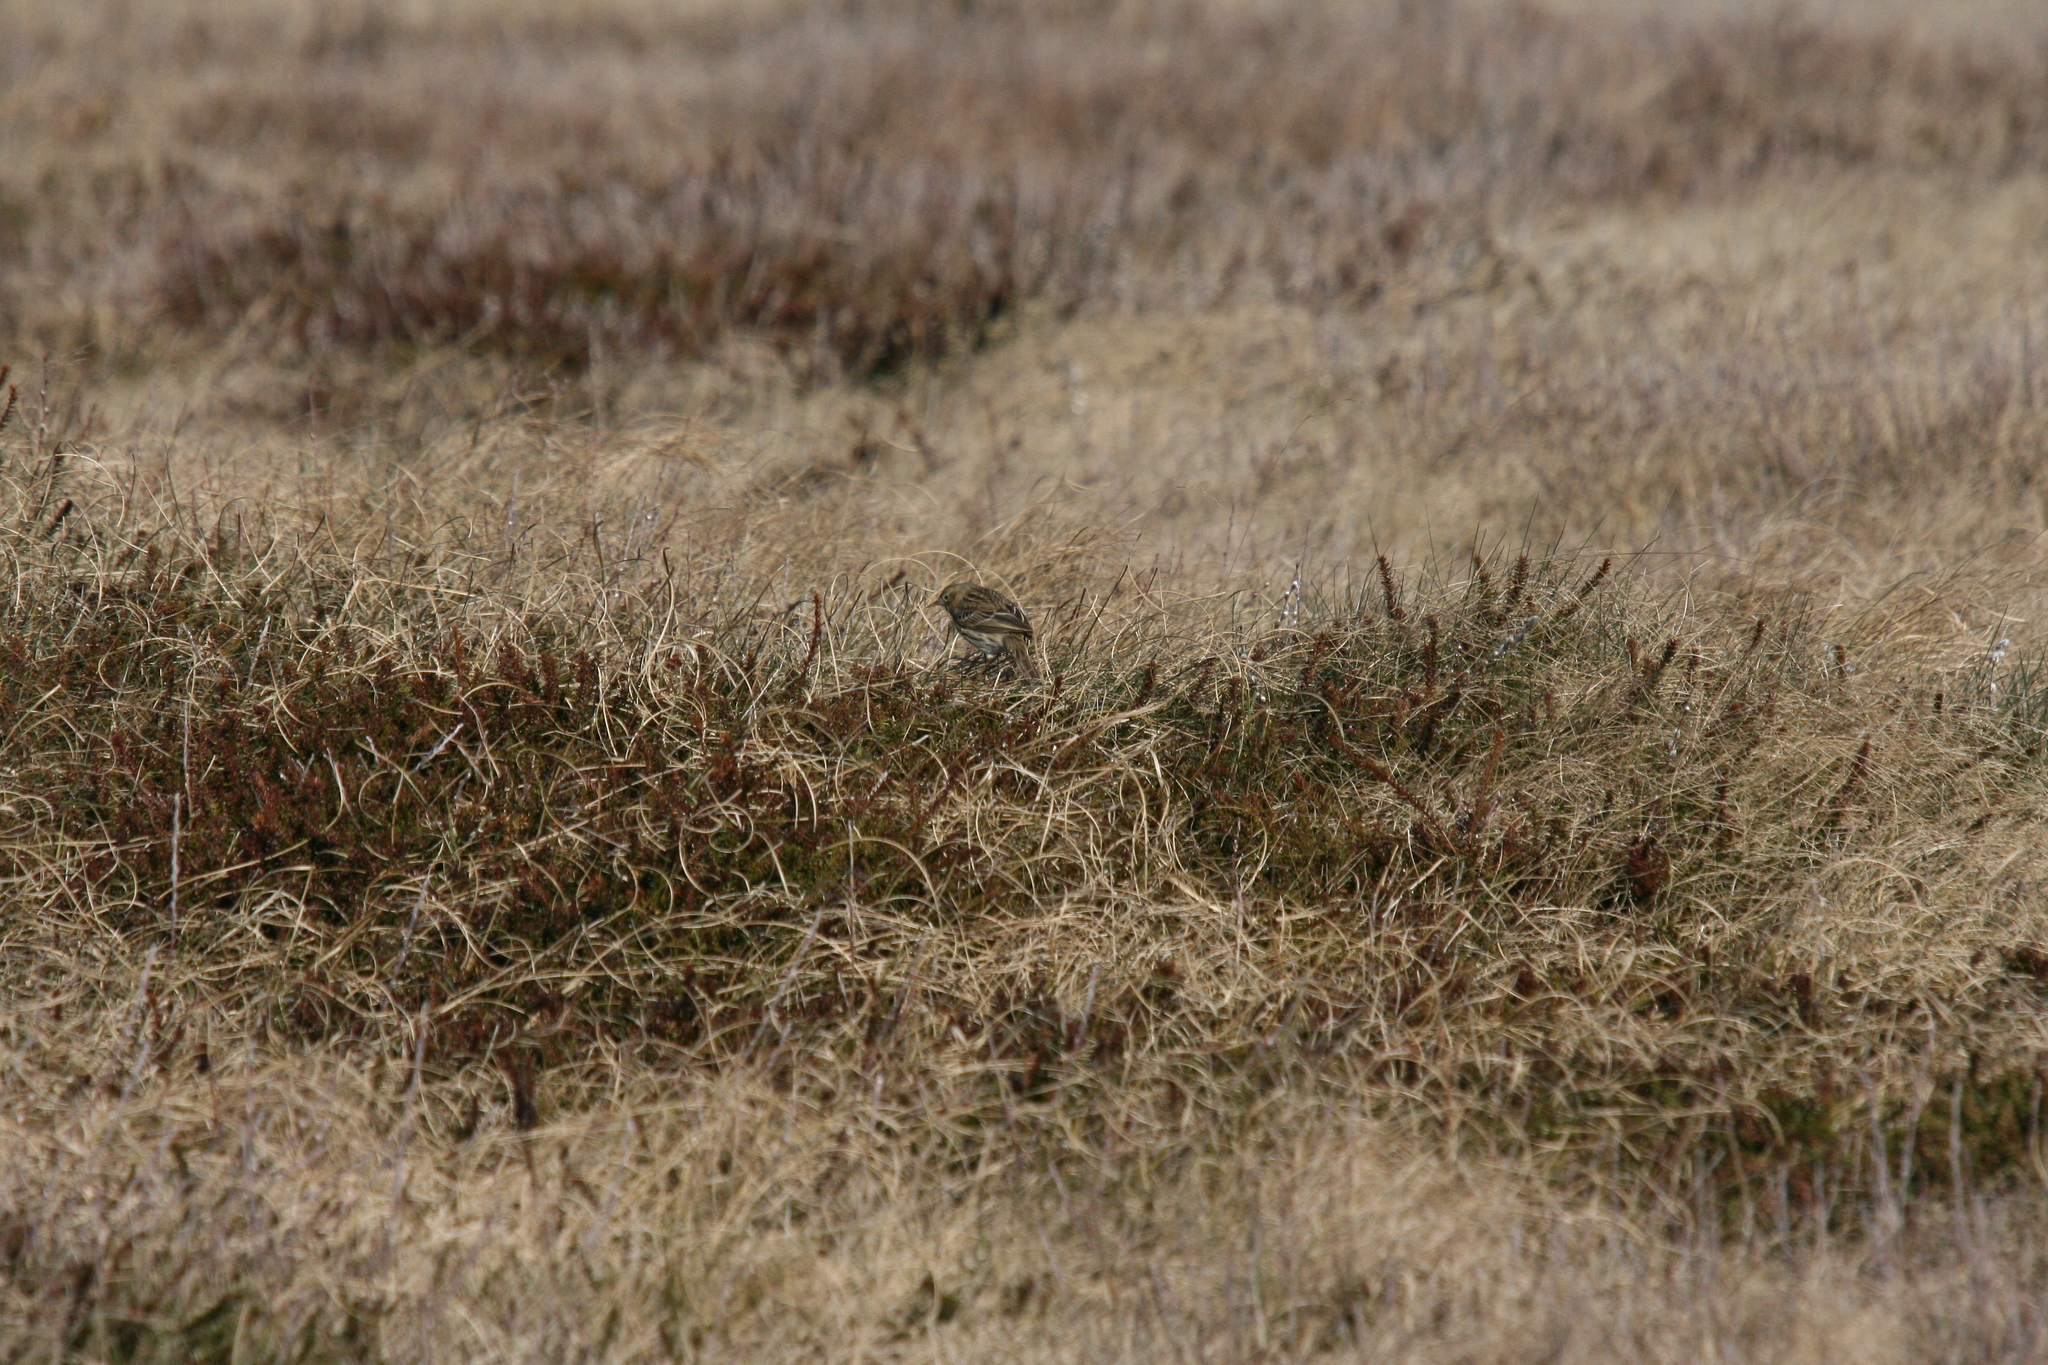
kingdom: Animalia
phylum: Chordata
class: Aves
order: Passeriformes
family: Motacillidae
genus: Anthus
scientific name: Anthus pratensis
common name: Meadow pipit
